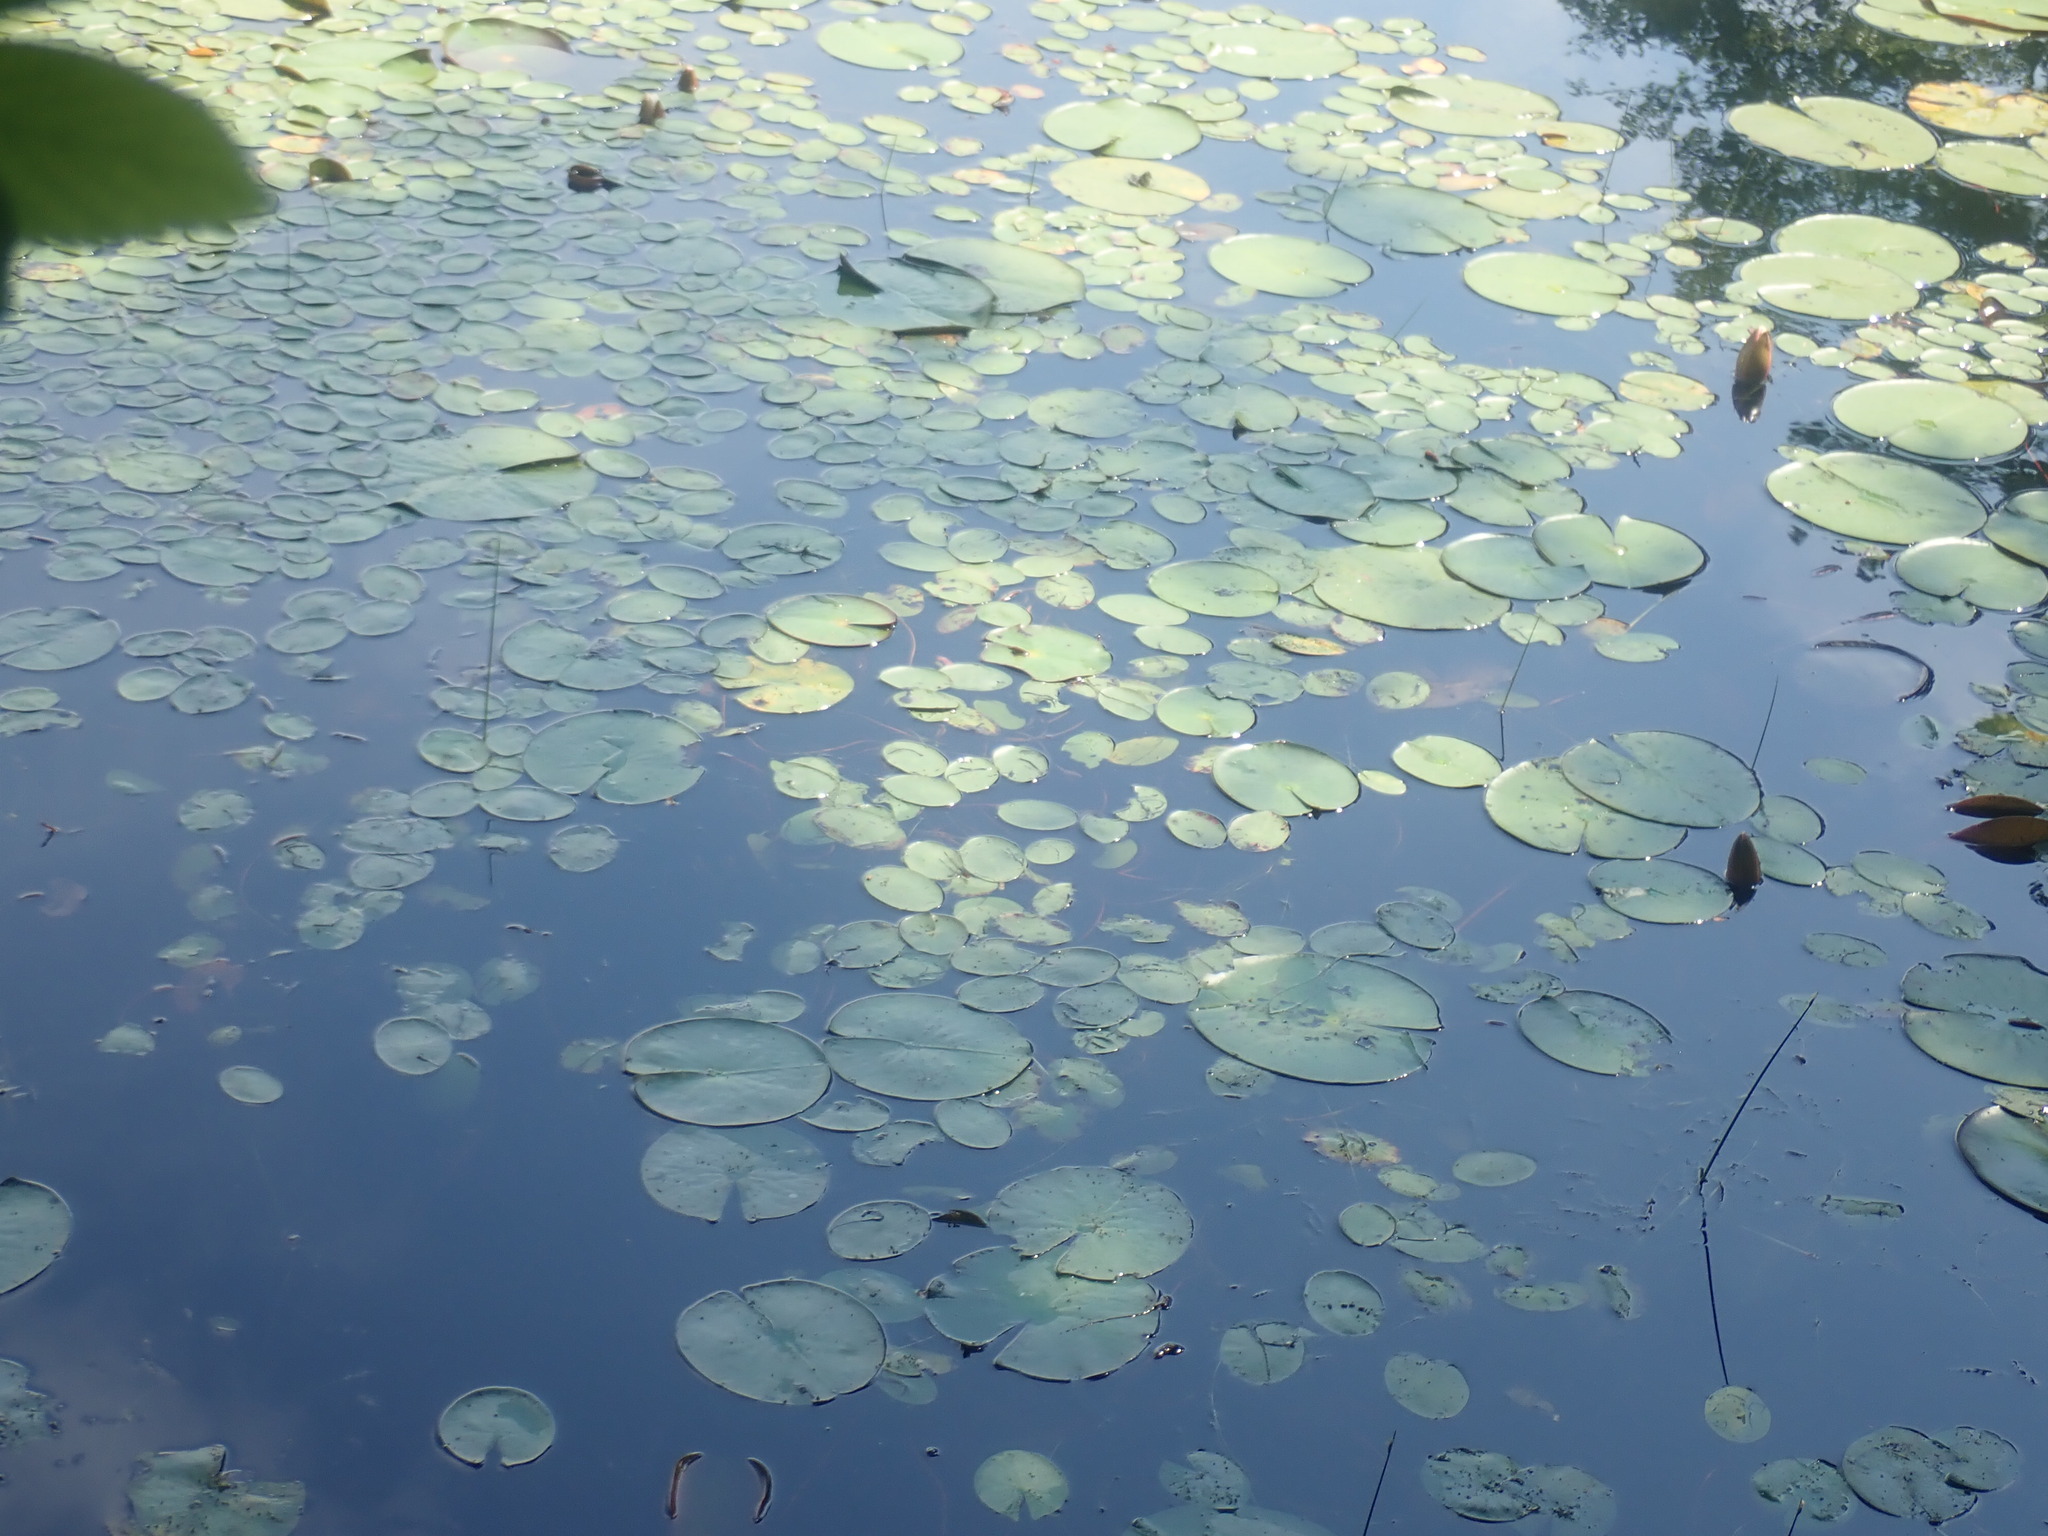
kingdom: Plantae
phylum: Tracheophyta
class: Magnoliopsida
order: Nymphaeales
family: Cabombaceae
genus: Brasenia
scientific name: Brasenia schreberi
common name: Water-shield
